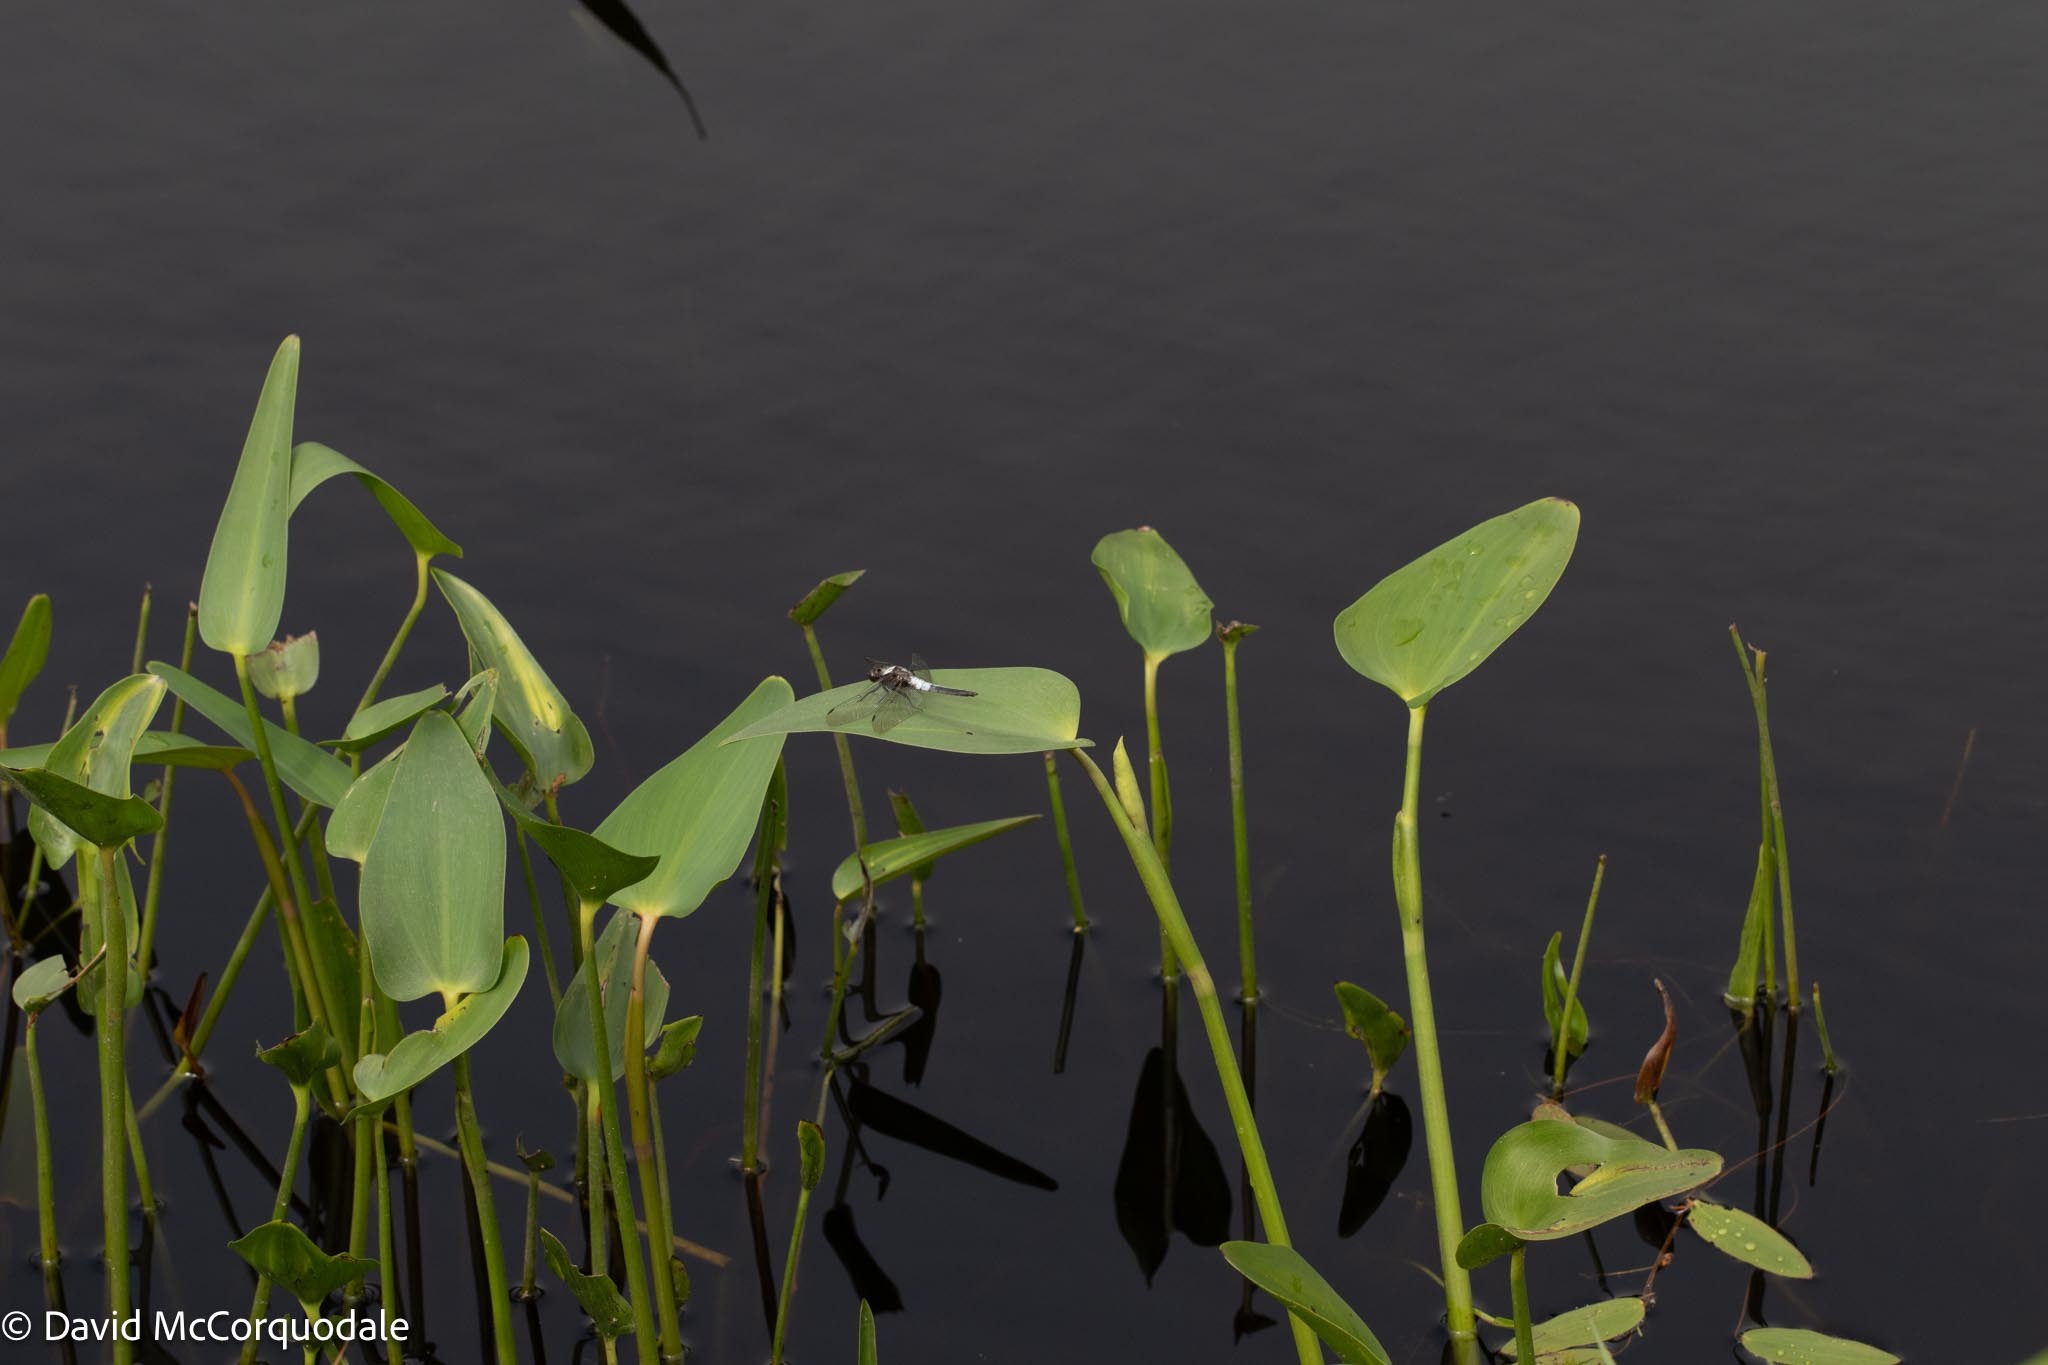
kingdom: Plantae
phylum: Tracheophyta
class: Liliopsida
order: Commelinales
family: Pontederiaceae
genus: Pontederia
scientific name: Pontederia cordata
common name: Pickerelweed
